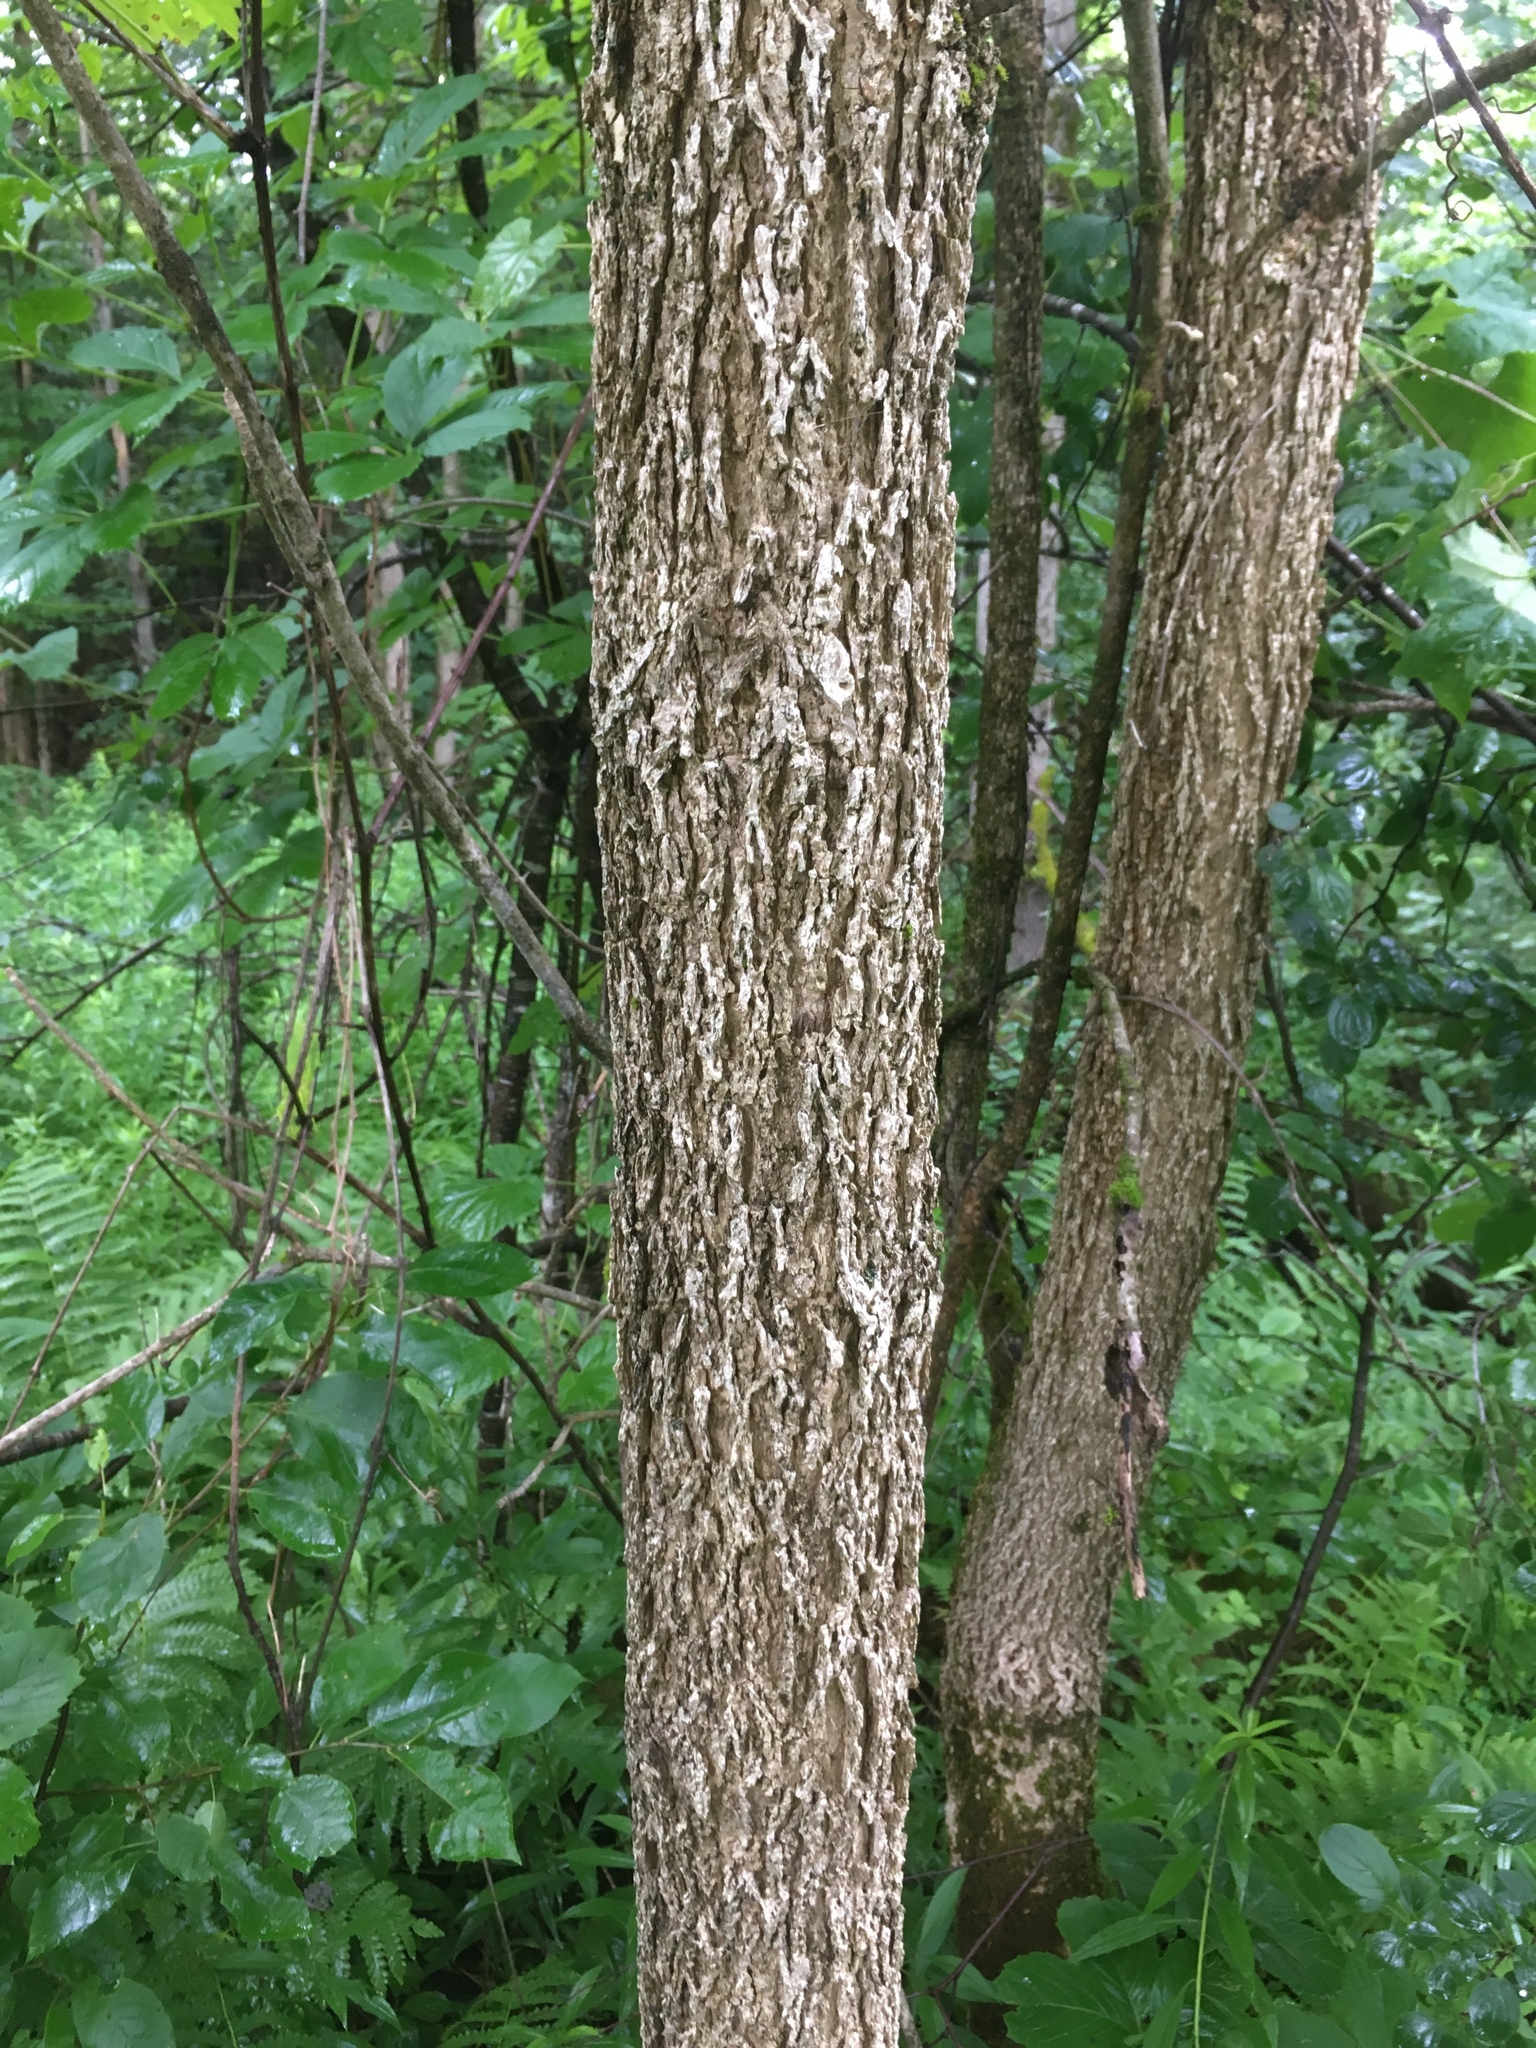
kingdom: Plantae
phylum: Tracheophyta
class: Magnoliopsida
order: Lamiales
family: Oleaceae
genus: Fraxinus
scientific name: Fraxinus nigra
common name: Black ash
